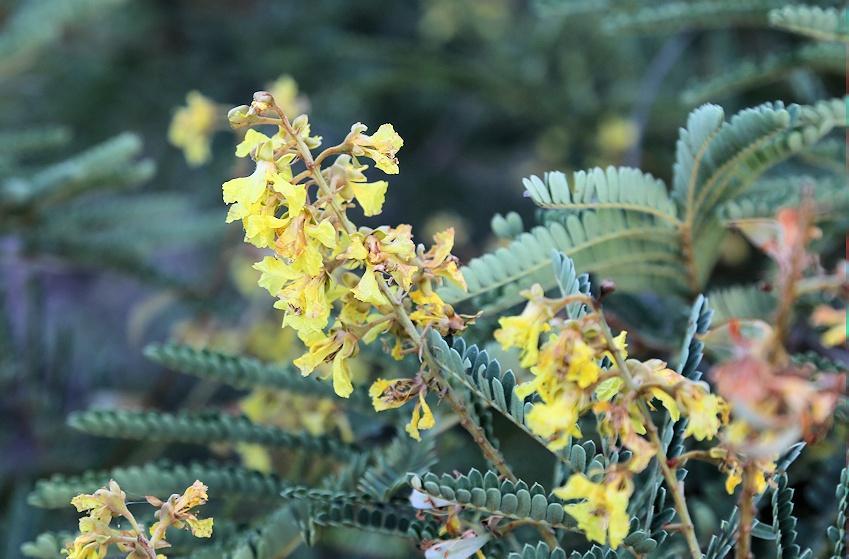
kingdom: Plantae
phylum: Tracheophyta
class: Magnoliopsida
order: Fabales
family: Fabaceae
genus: Peltophorum
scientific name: Peltophorum africanum
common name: African black wattle
